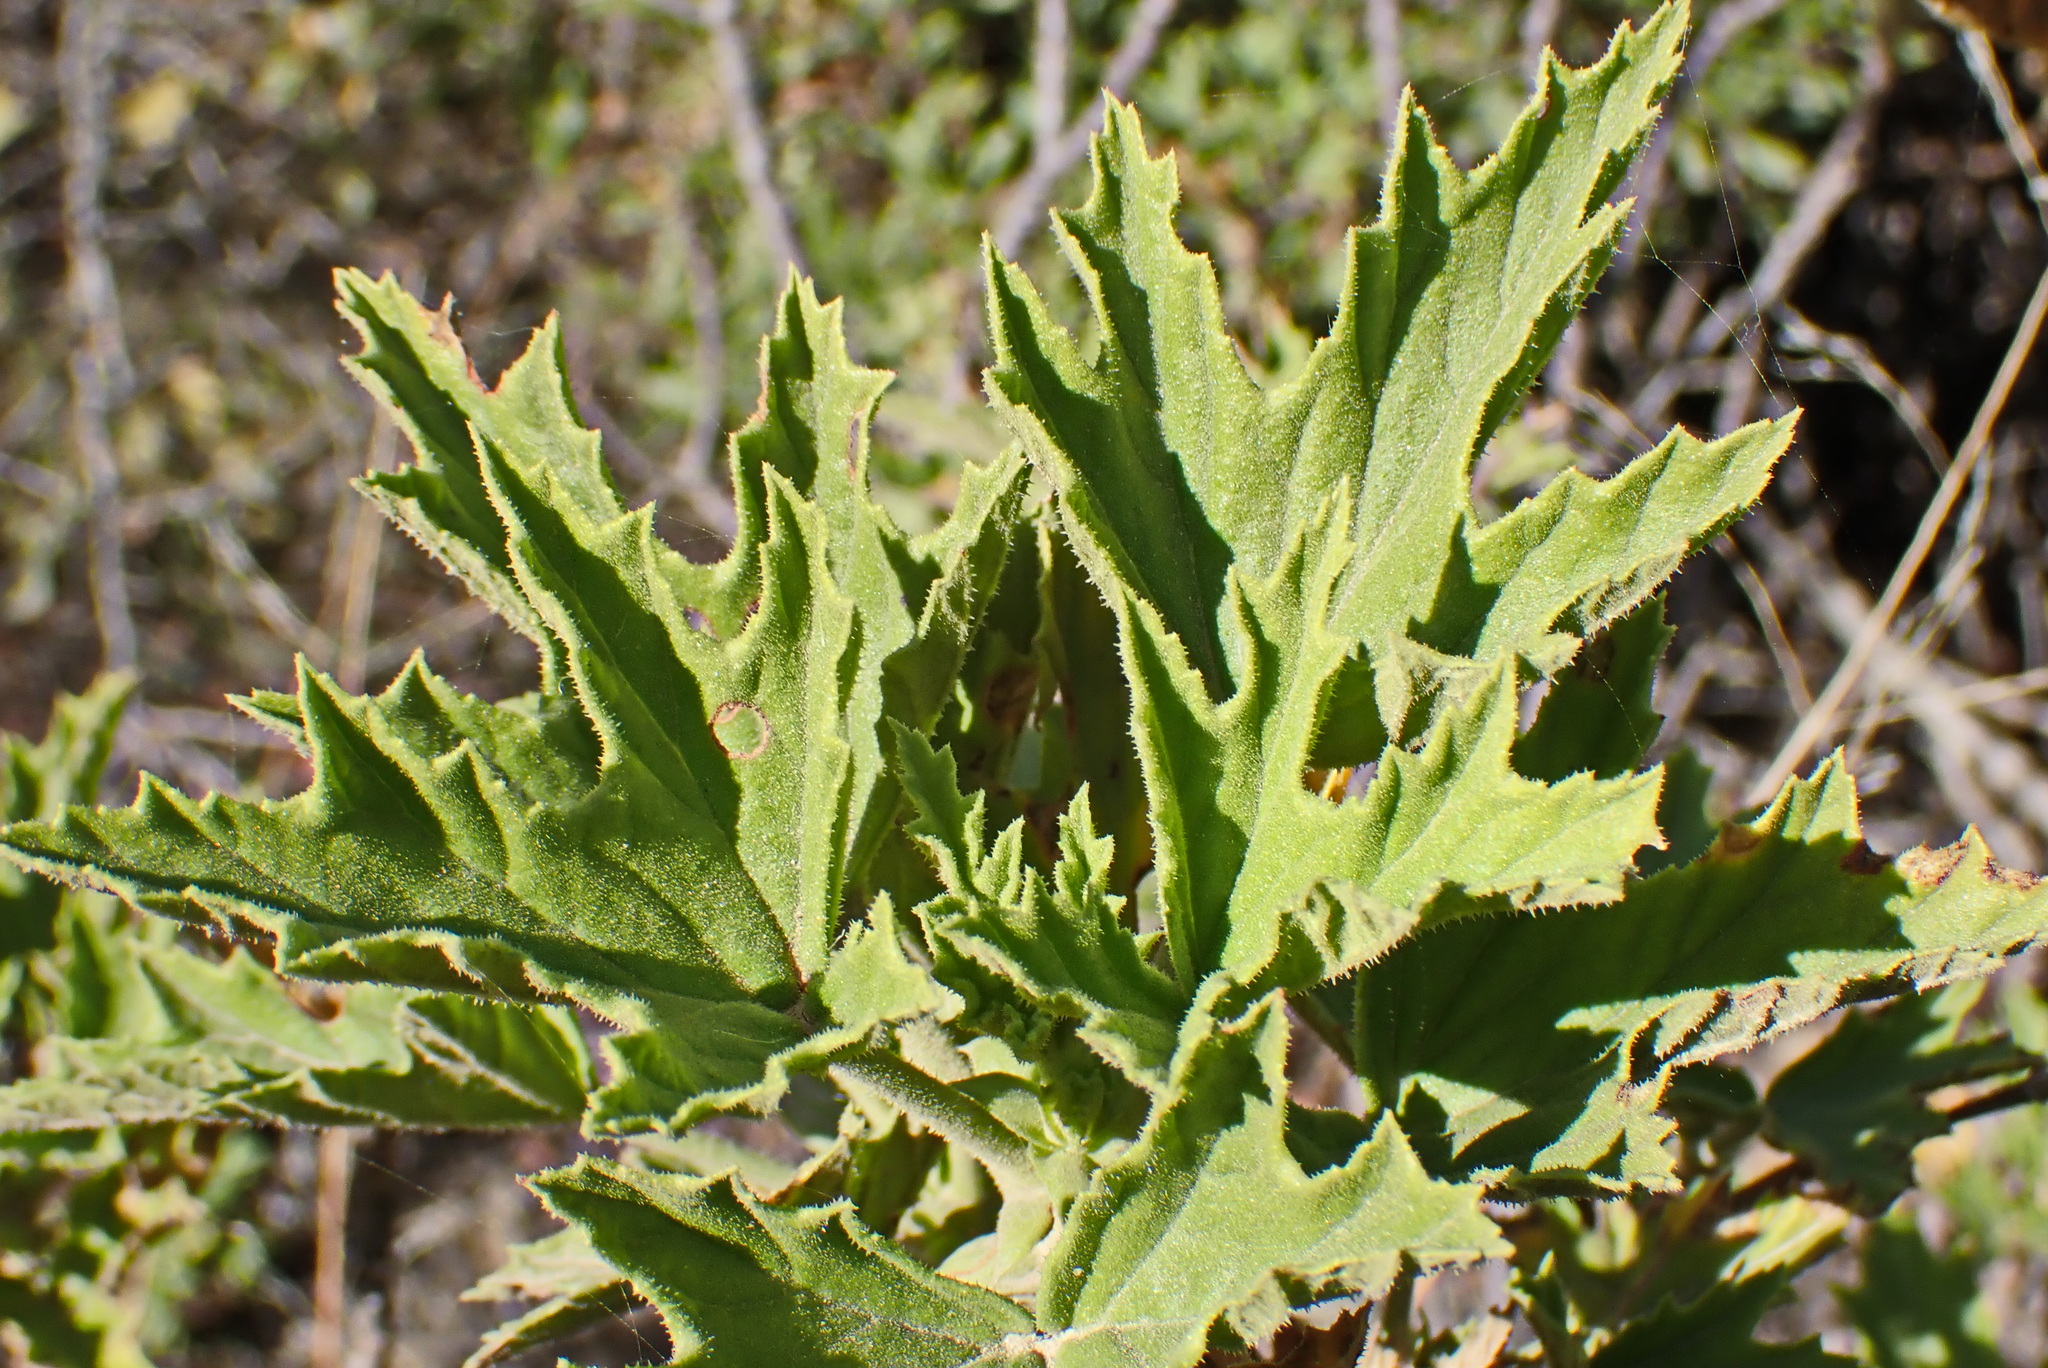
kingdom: Plantae
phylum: Tracheophyta
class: Magnoliopsida
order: Geraniales
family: Geraniaceae
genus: Pelargonium
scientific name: Pelargonium scabrum
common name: Apricot geranium
